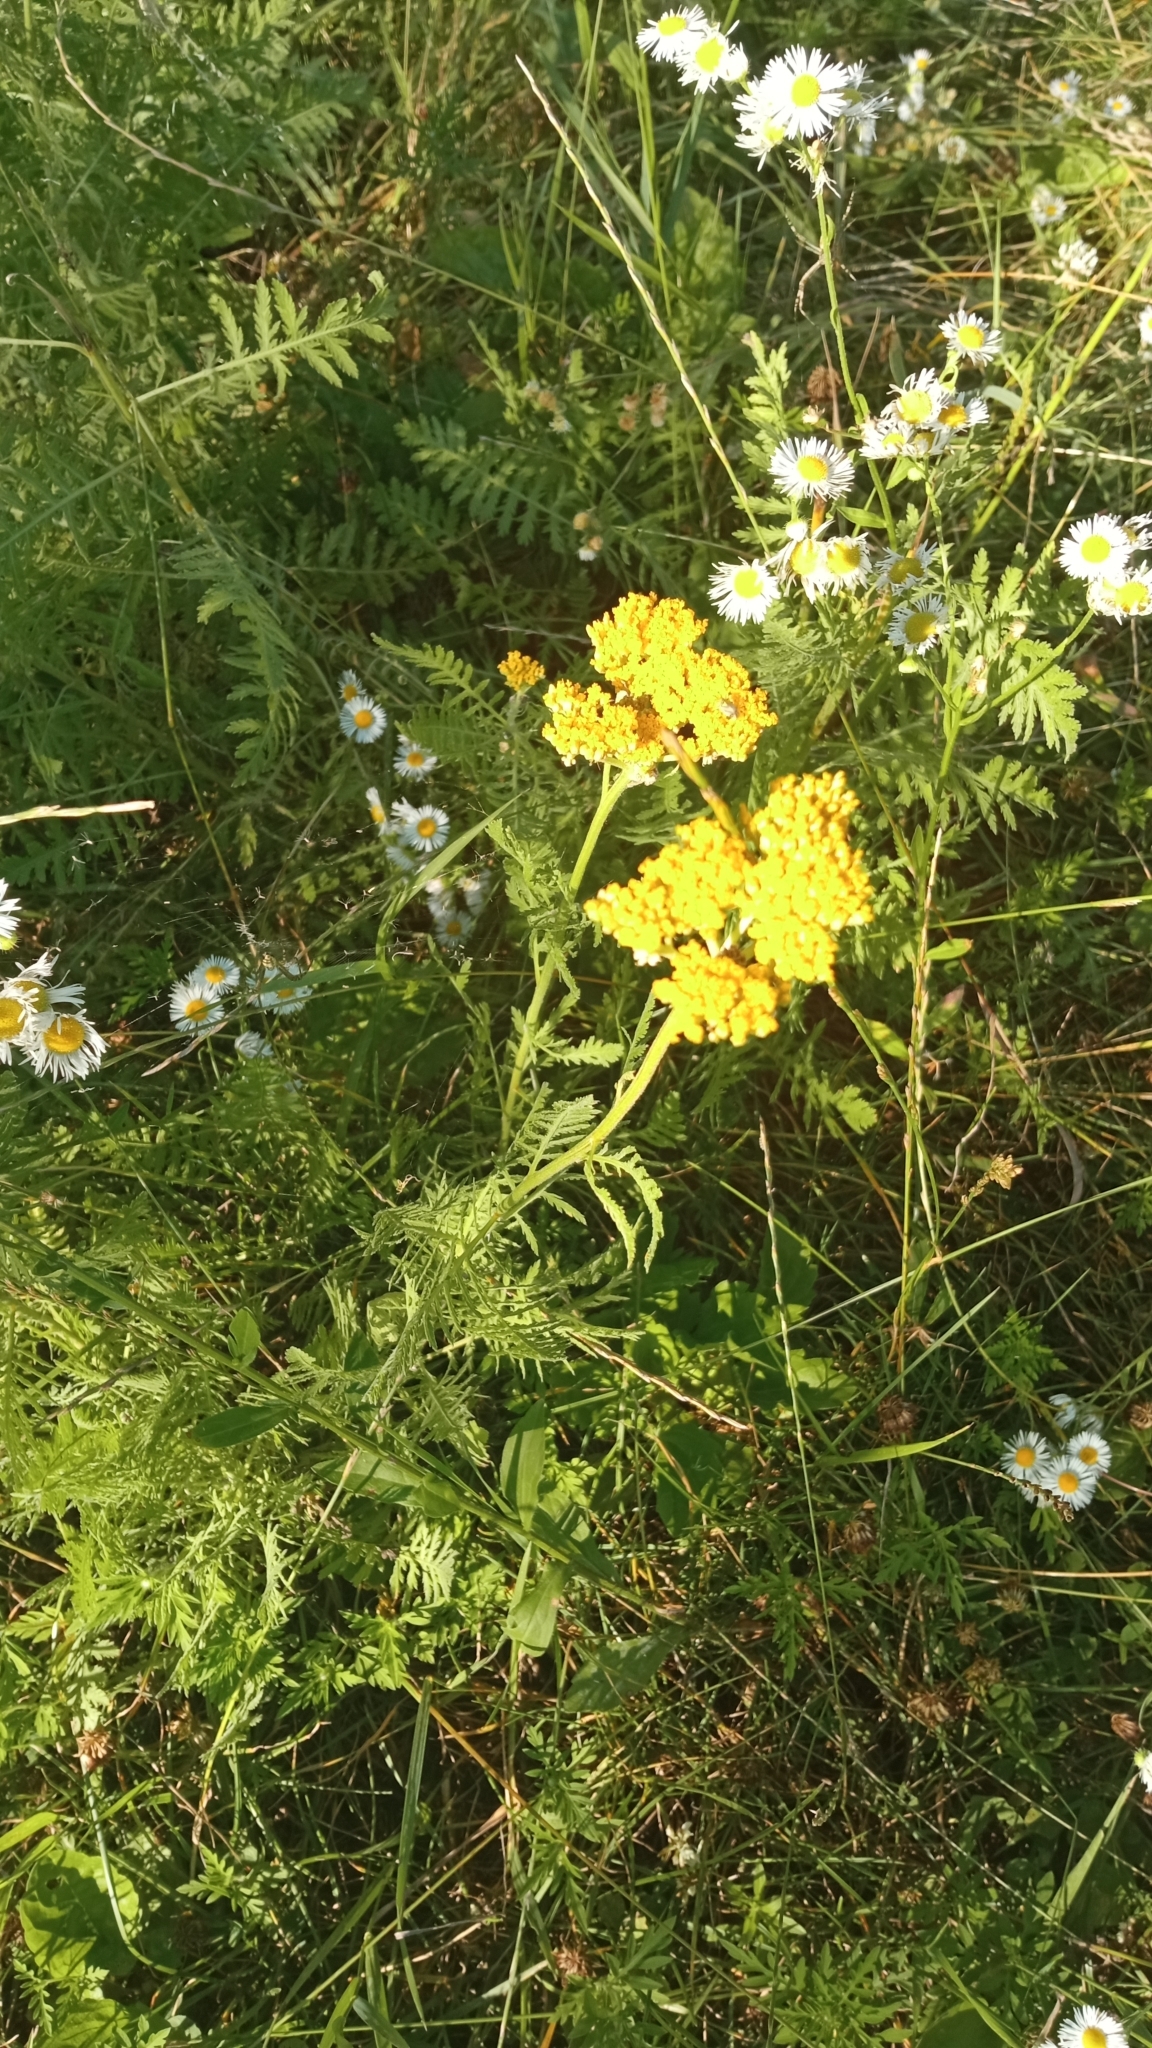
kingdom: Plantae
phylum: Tracheophyta
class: Magnoliopsida
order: Asterales
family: Asteraceae
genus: Achillea
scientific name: Achillea filipendulina
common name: Fernleaf yarrow
